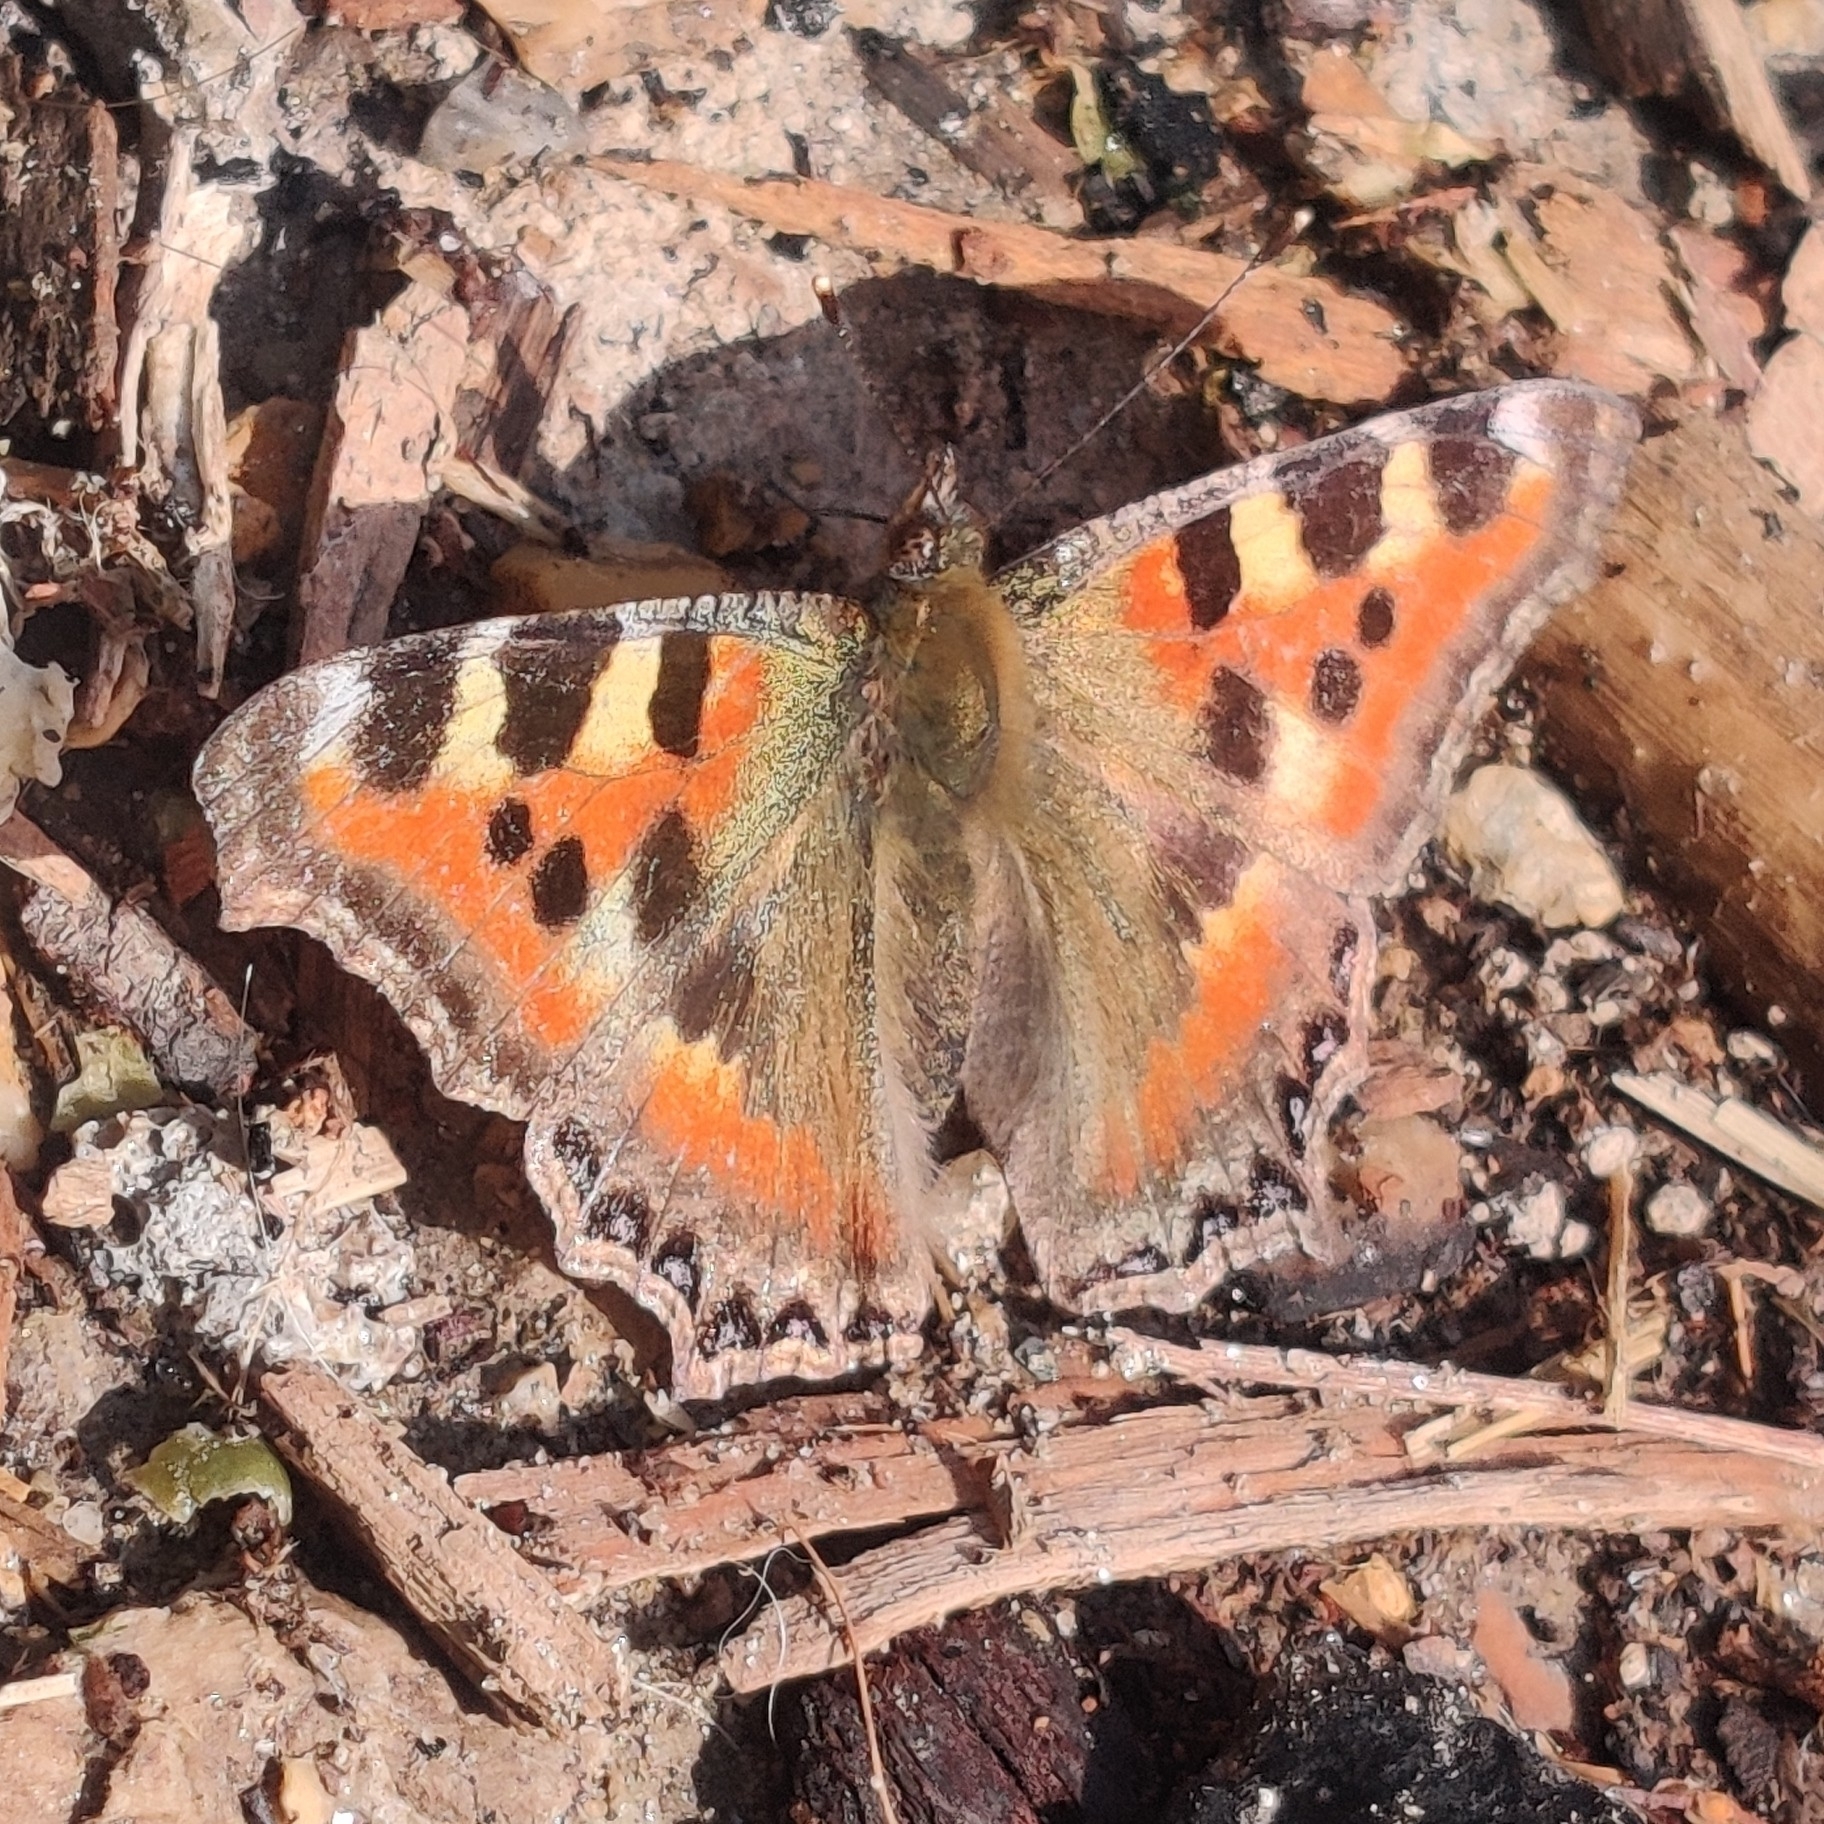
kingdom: Animalia
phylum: Arthropoda
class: Insecta
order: Lepidoptera
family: Nymphalidae
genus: Aglais
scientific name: Aglais caschmirensis
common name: Indian tortoiseshell
